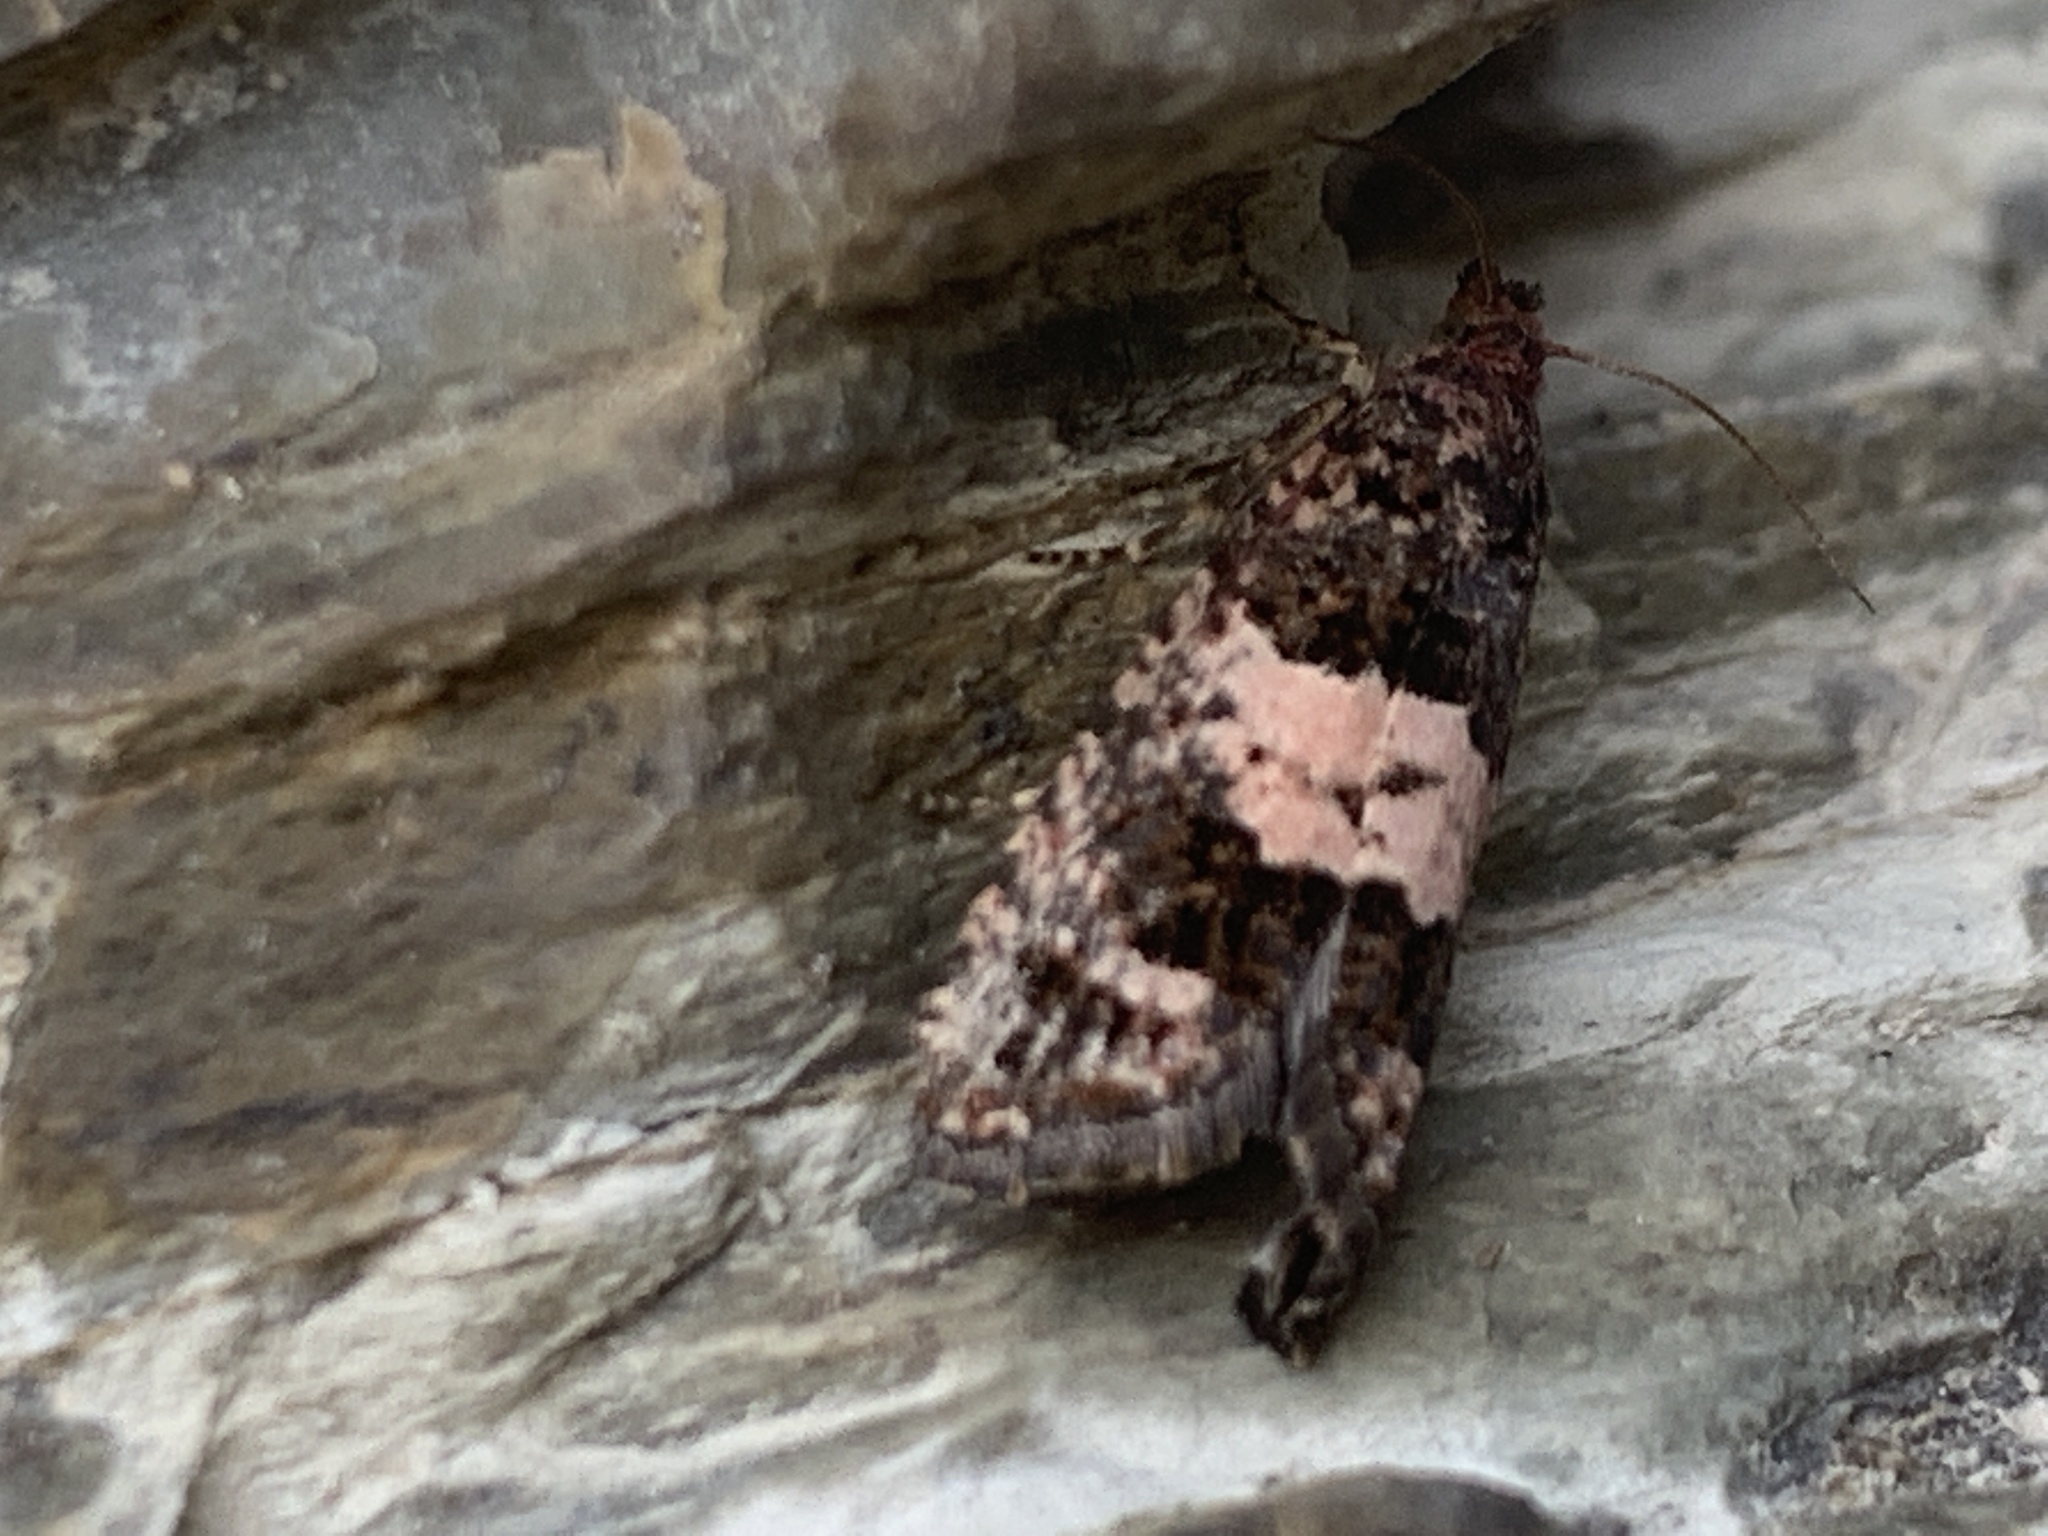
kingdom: Animalia
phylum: Arthropoda
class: Insecta
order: Lepidoptera
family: Tortricidae
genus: Epiblema
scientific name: Epiblema periculosana
